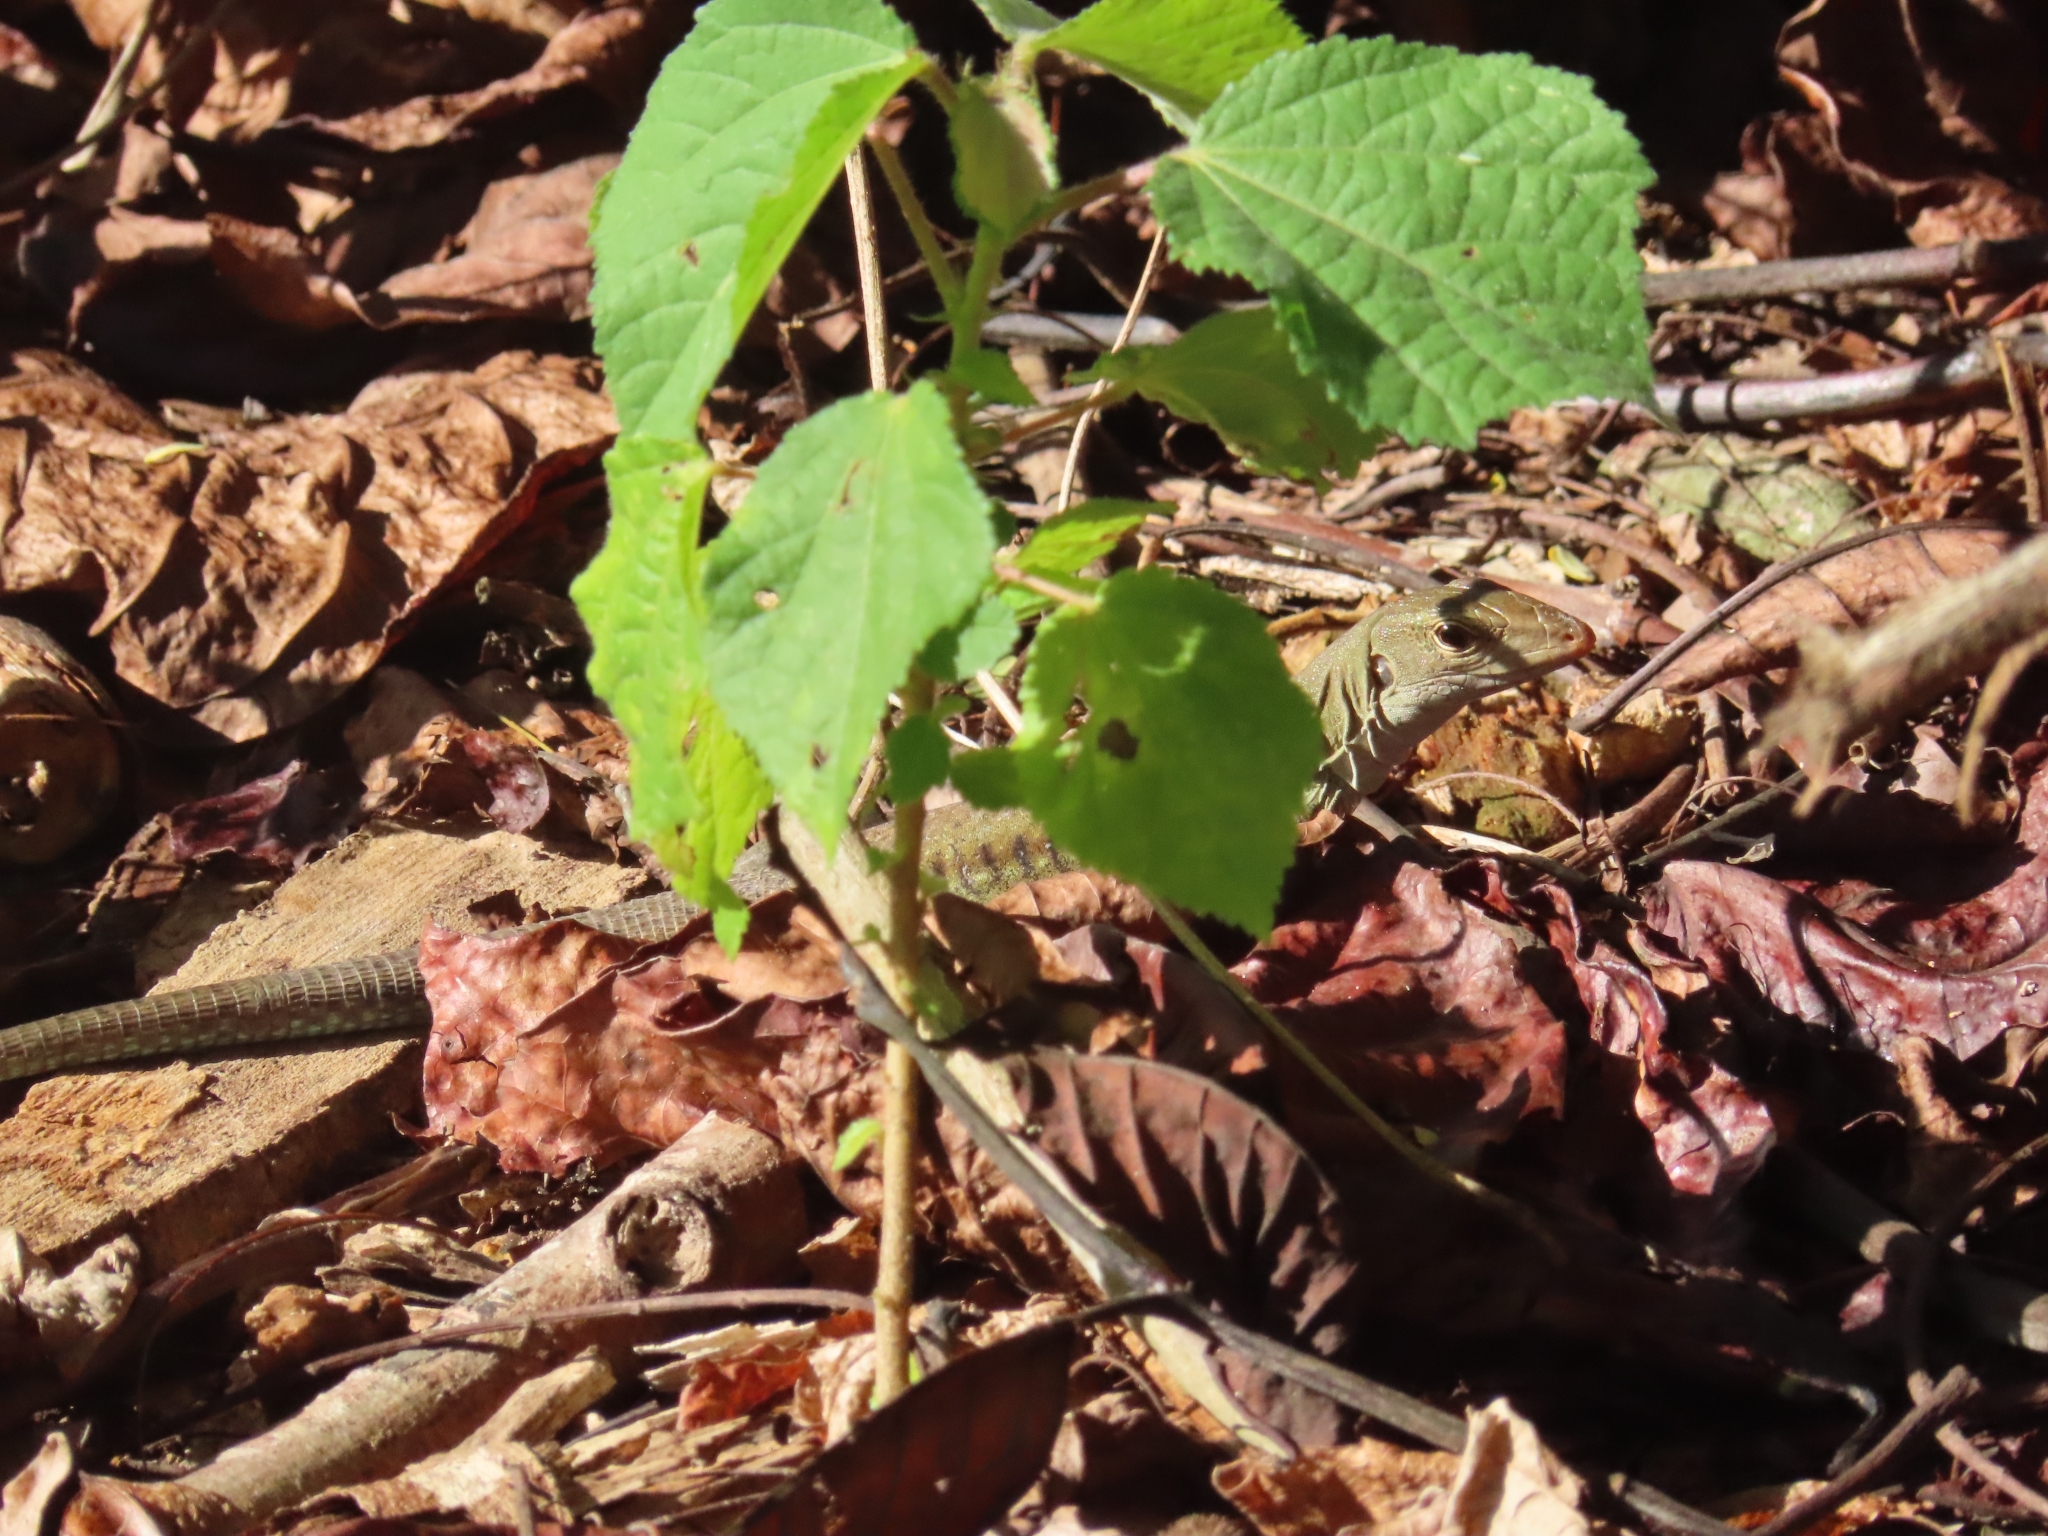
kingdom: Animalia
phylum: Chordata
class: Squamata
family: Teiidae
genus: Pholidoscelis
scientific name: Pholidoscelis exsul
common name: Common puerto rican ameiva
